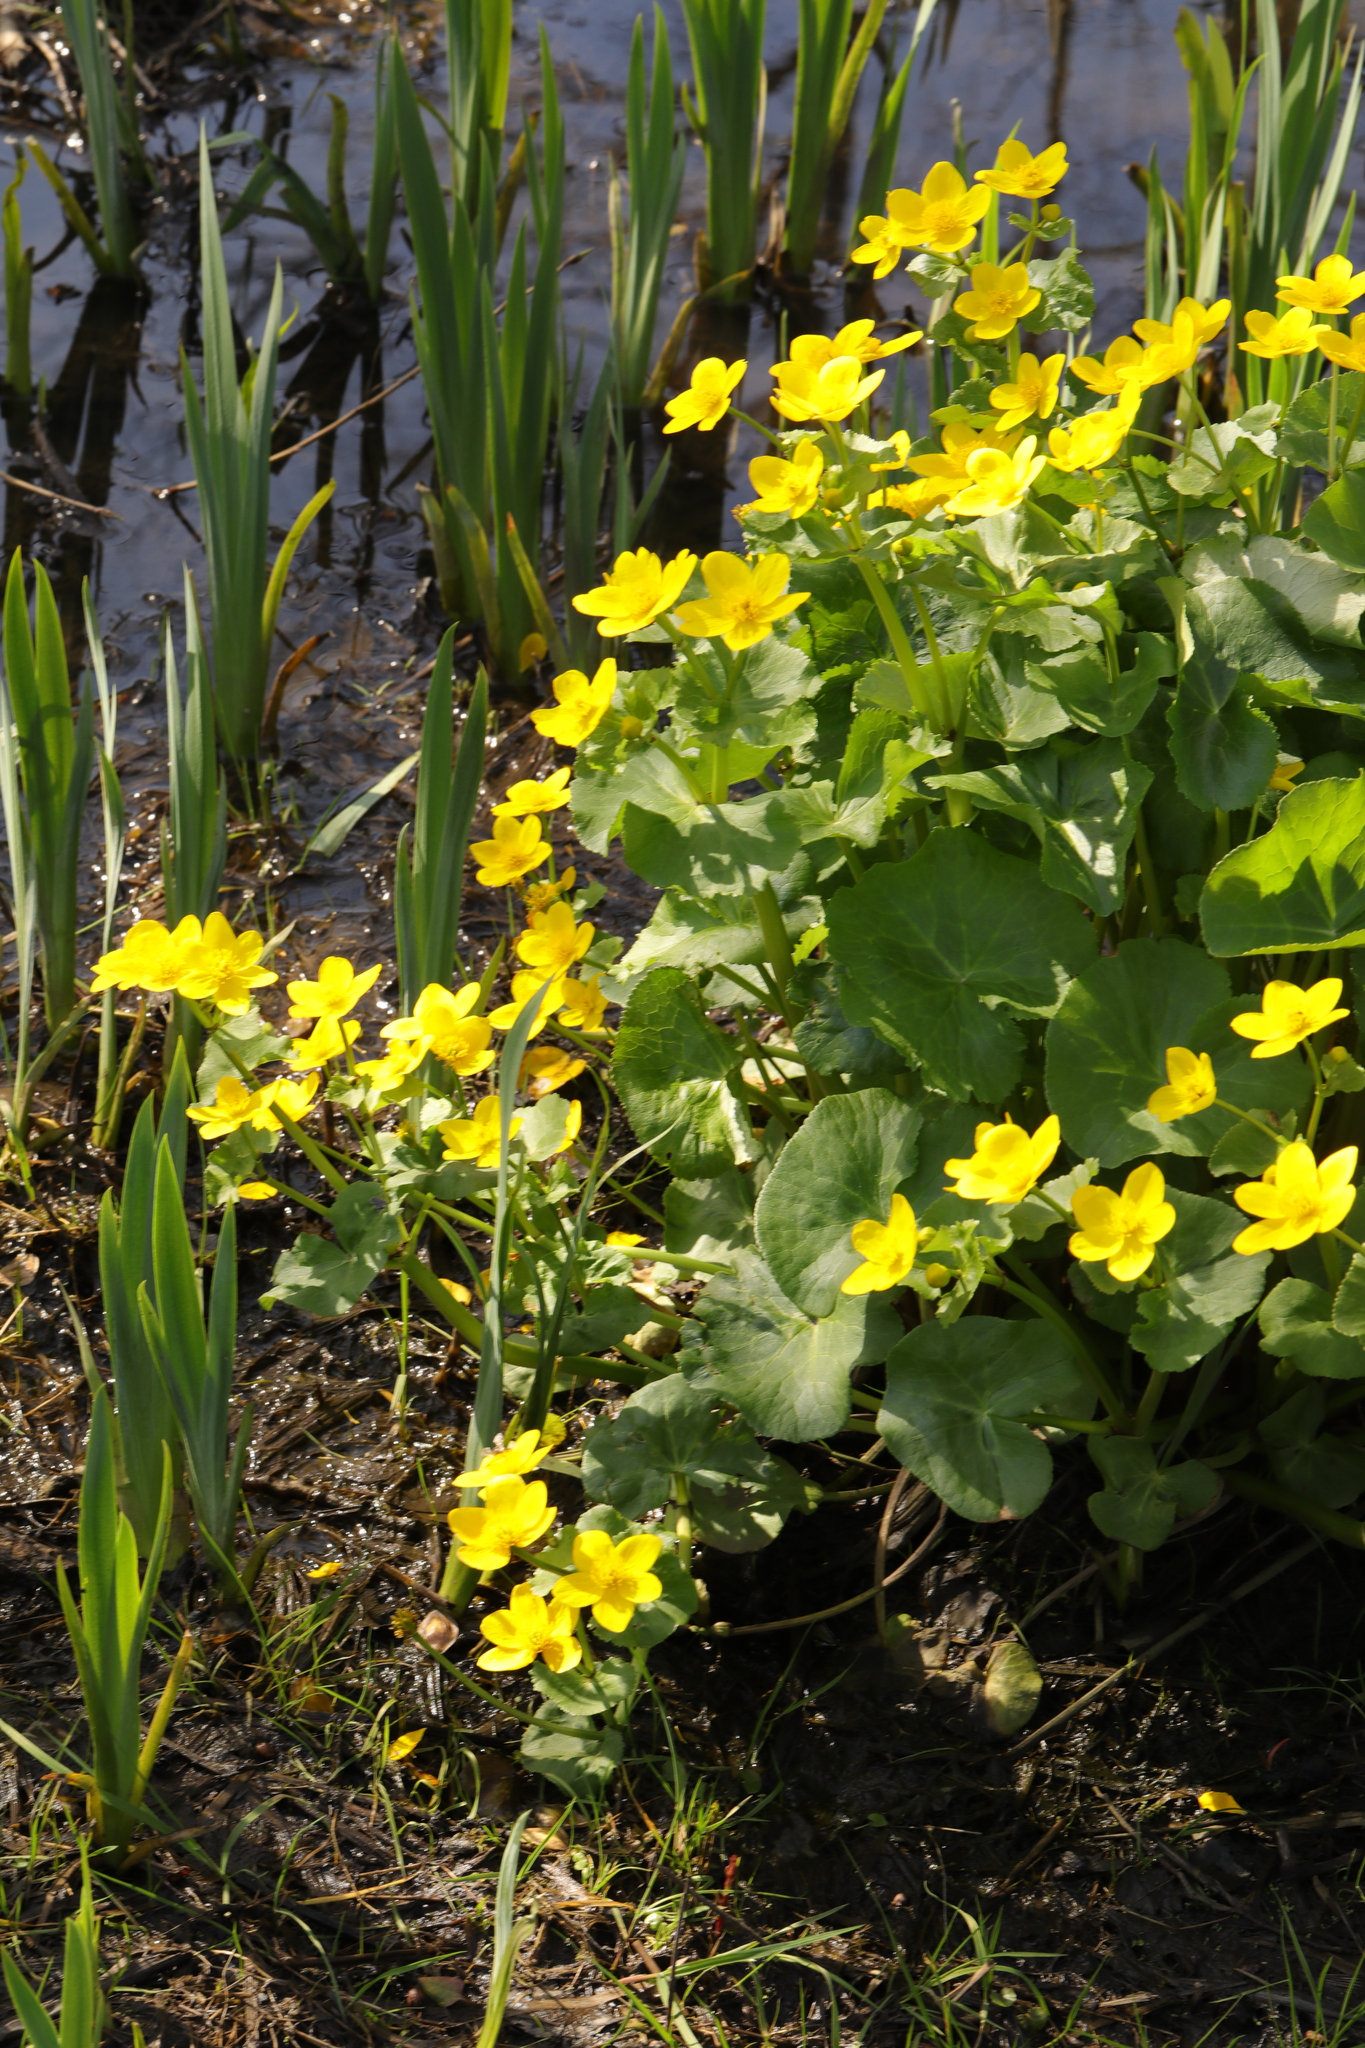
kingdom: Plantae
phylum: Tracheophyta
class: Magnoliopsida
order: Ranunculales
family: Ranunculaceae
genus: Caltha
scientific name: Caltha palustris
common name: Marsh marigold
